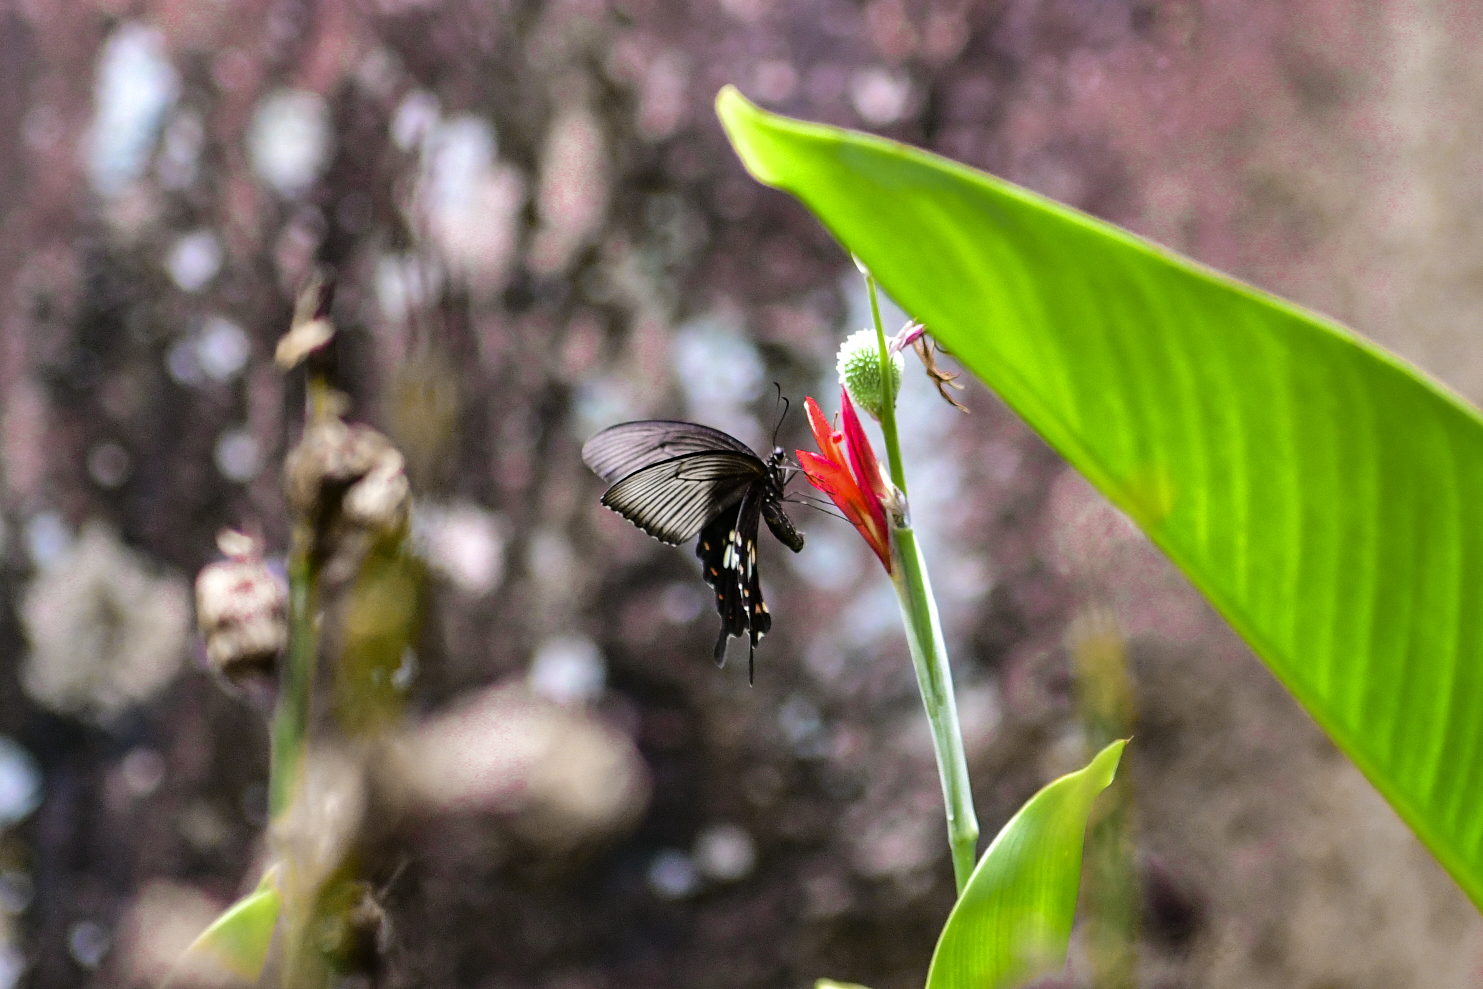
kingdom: Animalia
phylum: Arthropoda
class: Insecta
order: Lepidoptera
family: Papilionidae
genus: Papilio
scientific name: Papilio polytes
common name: Common mormon
